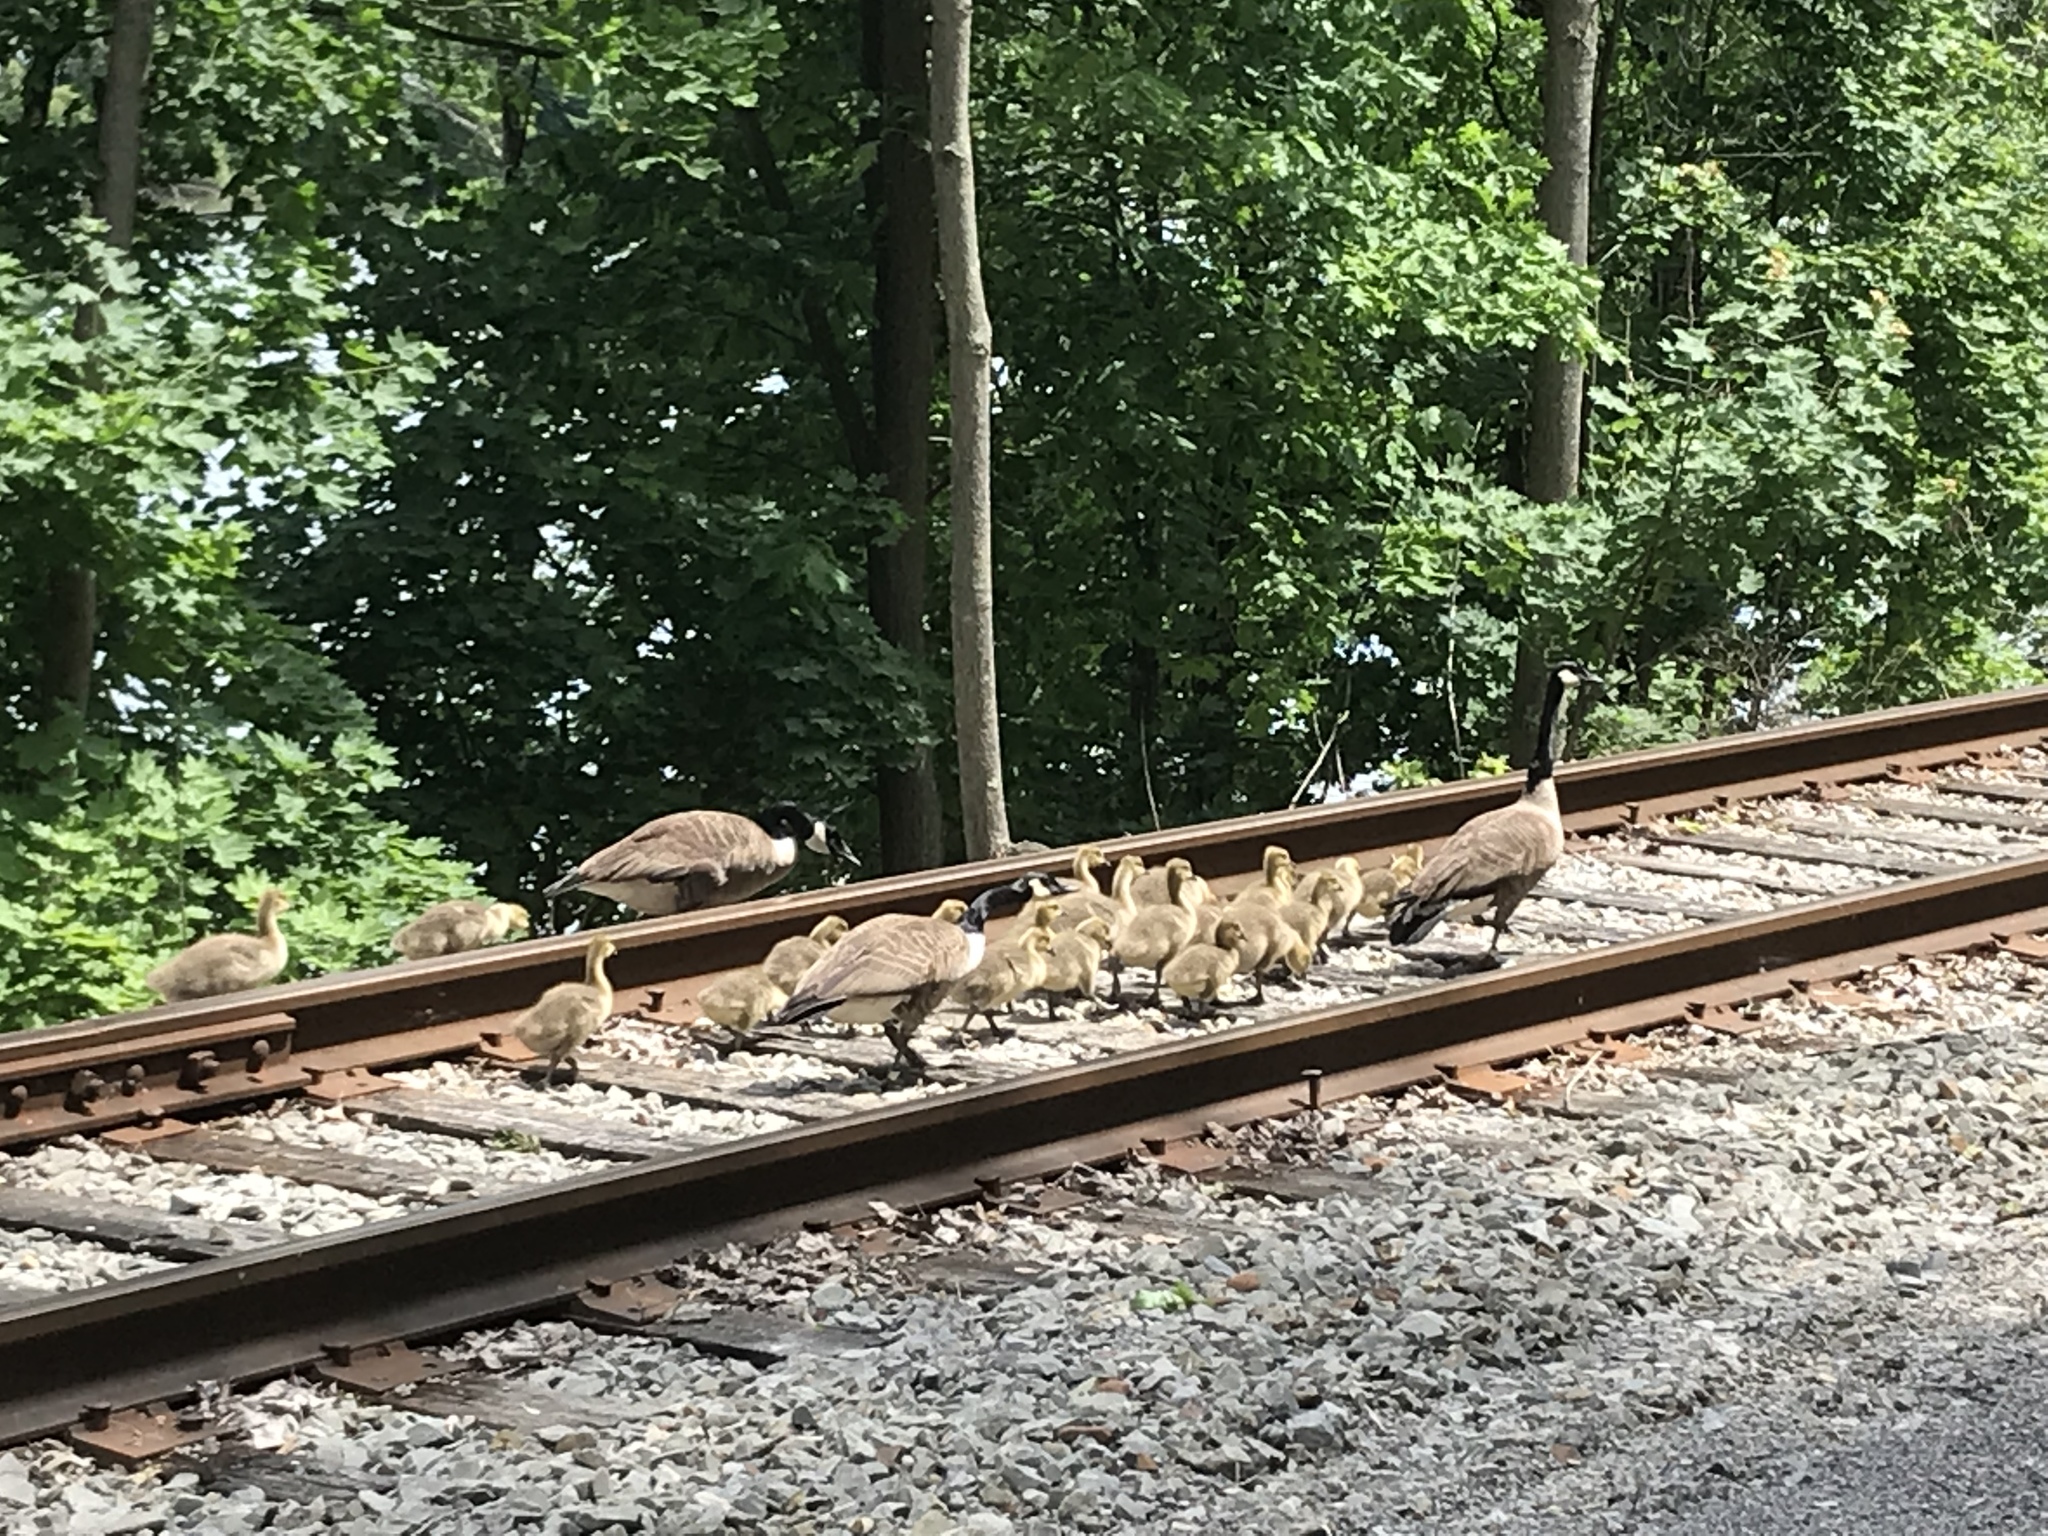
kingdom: Animalia
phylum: Chordata
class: Aves
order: Anseriformes
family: Anatidae
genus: Branta
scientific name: Branta canadensis
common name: Canada goose
